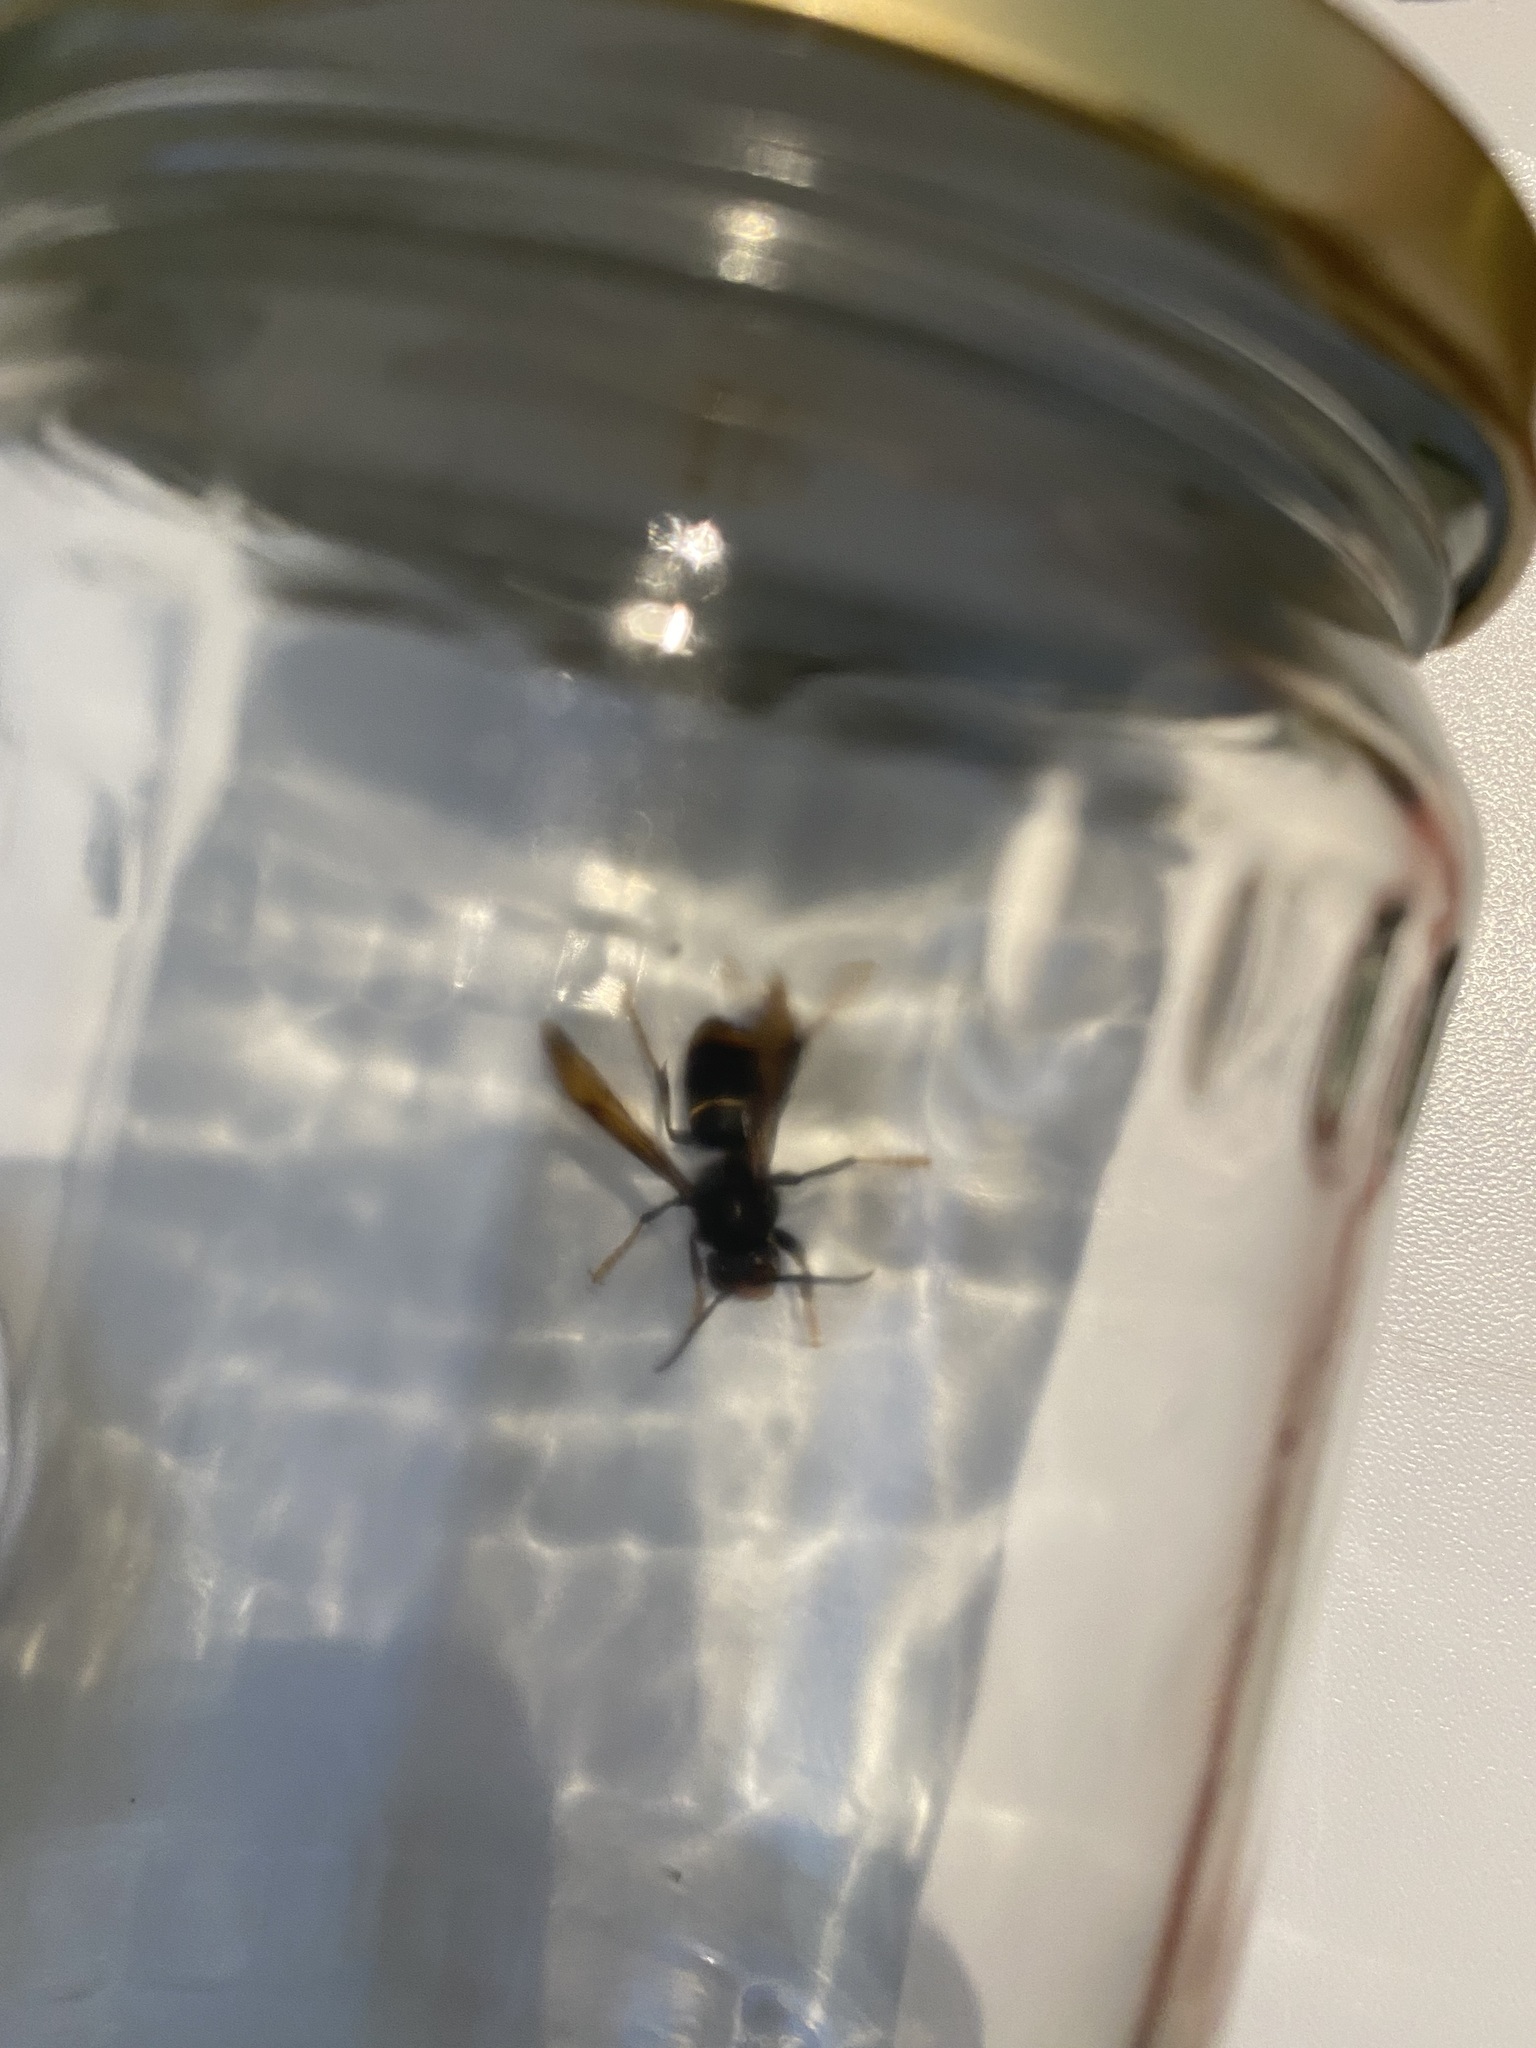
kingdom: Animalia
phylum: Arthropoda
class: Insecta
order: Hymenoptera
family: Vespidae
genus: Vespa
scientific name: Vespa velutina
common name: Asian hornet
